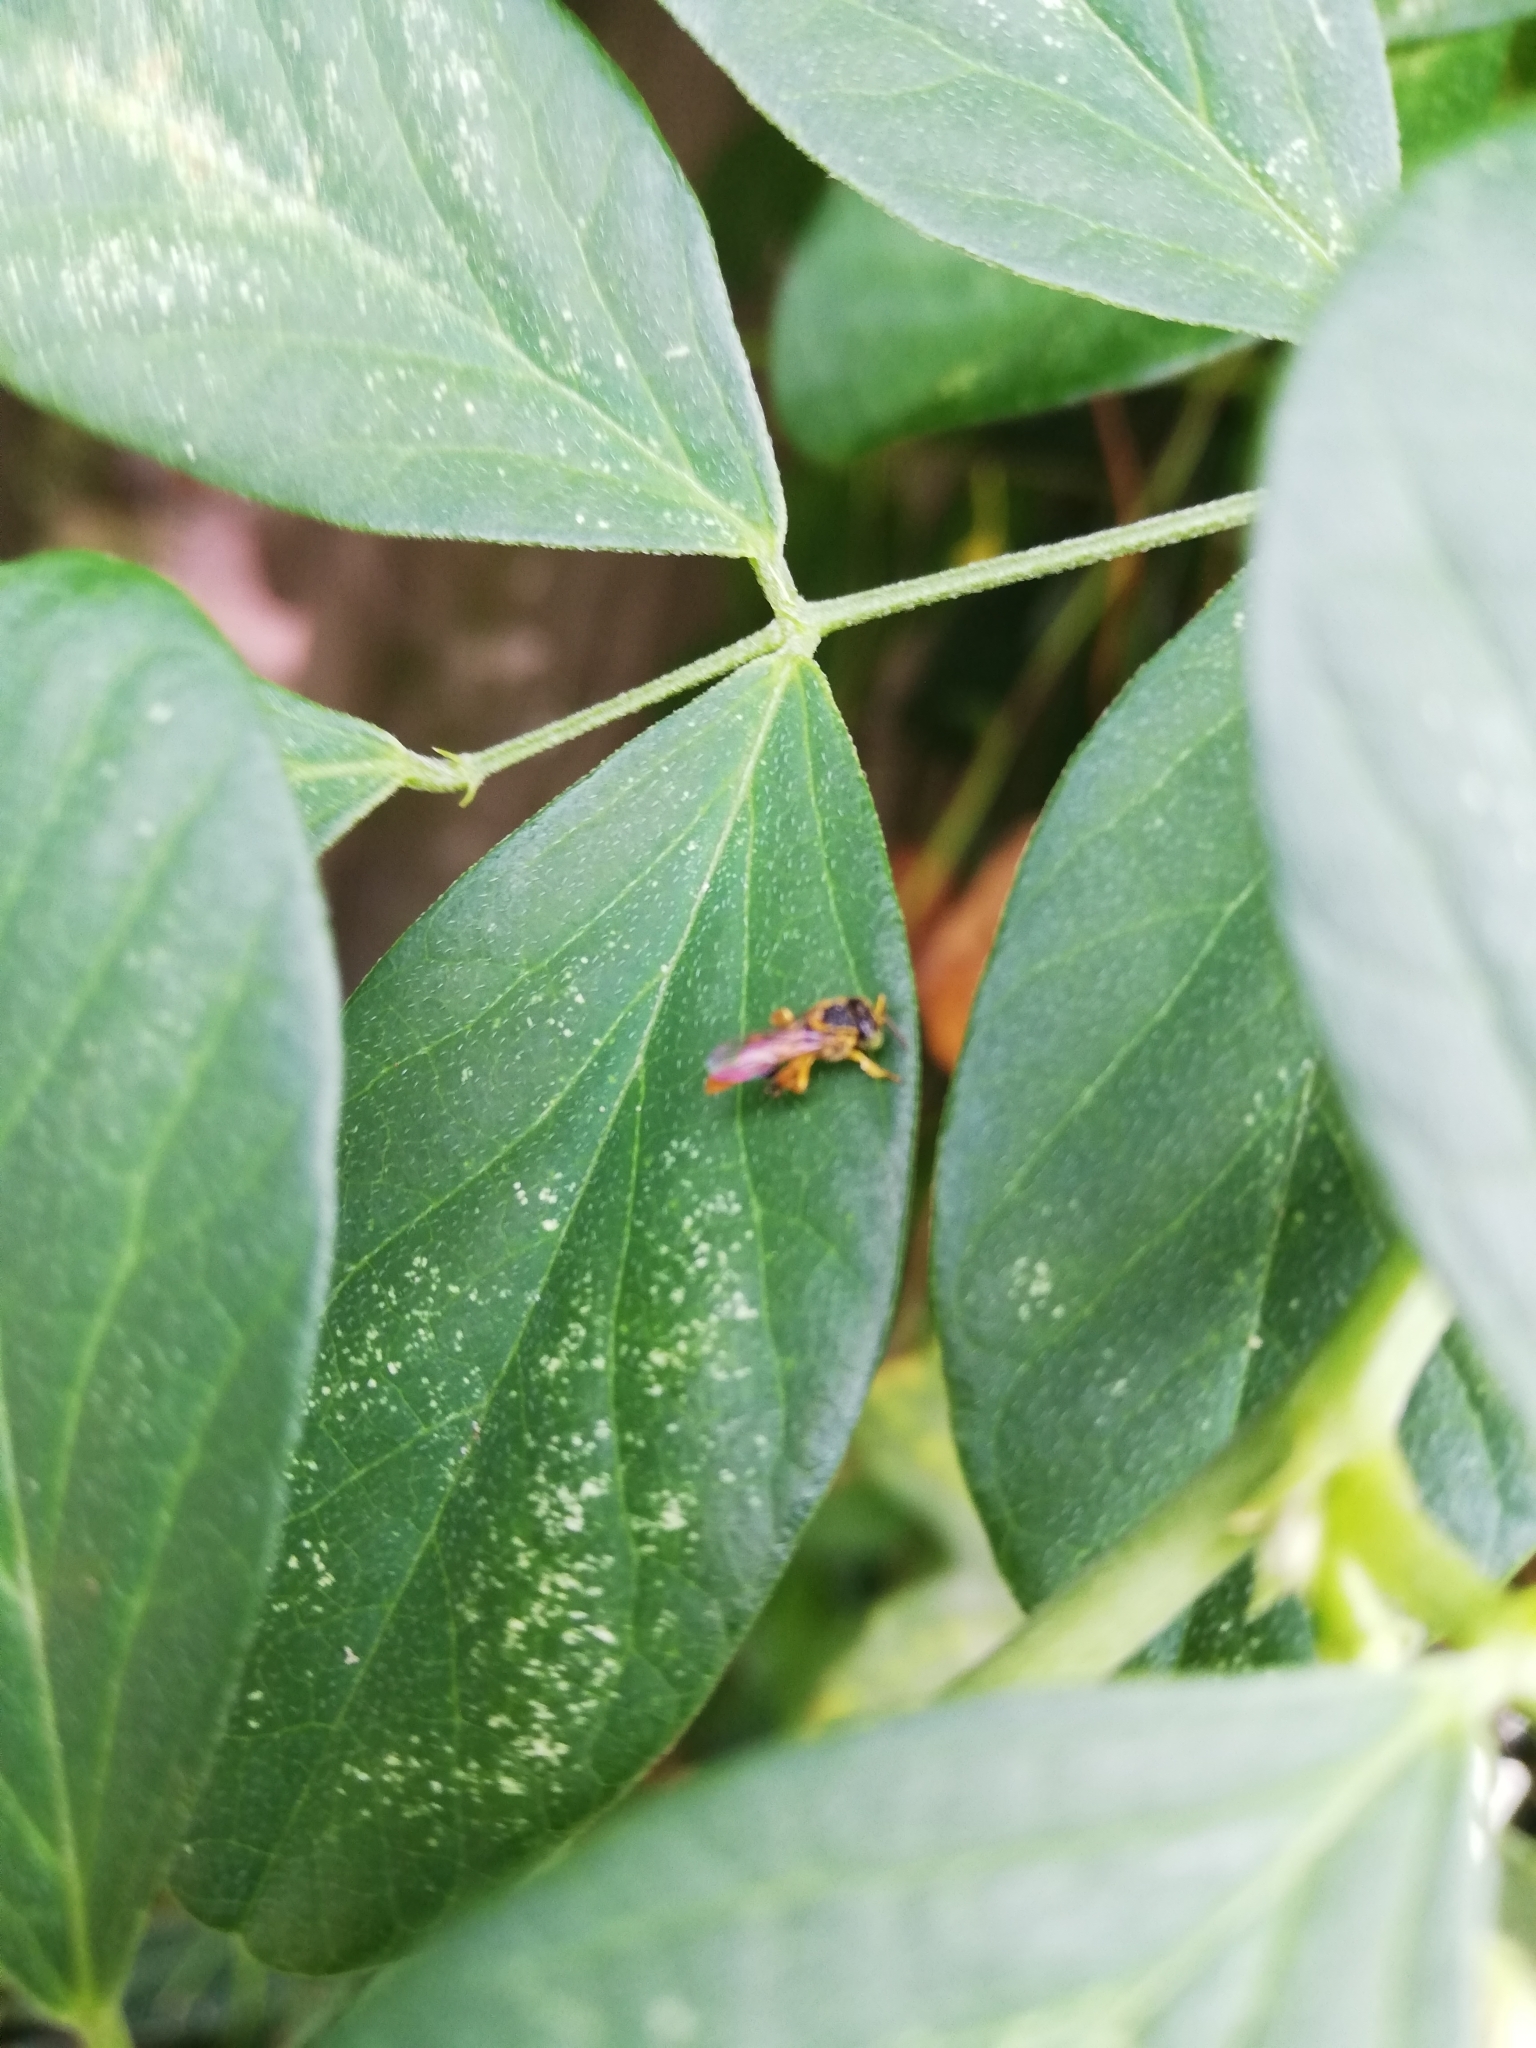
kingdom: Animalia
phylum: Arthropoda
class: Insecta
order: Hymenoptera
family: Apidae
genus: Tetragonisca
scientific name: Tetragonisca angustula
